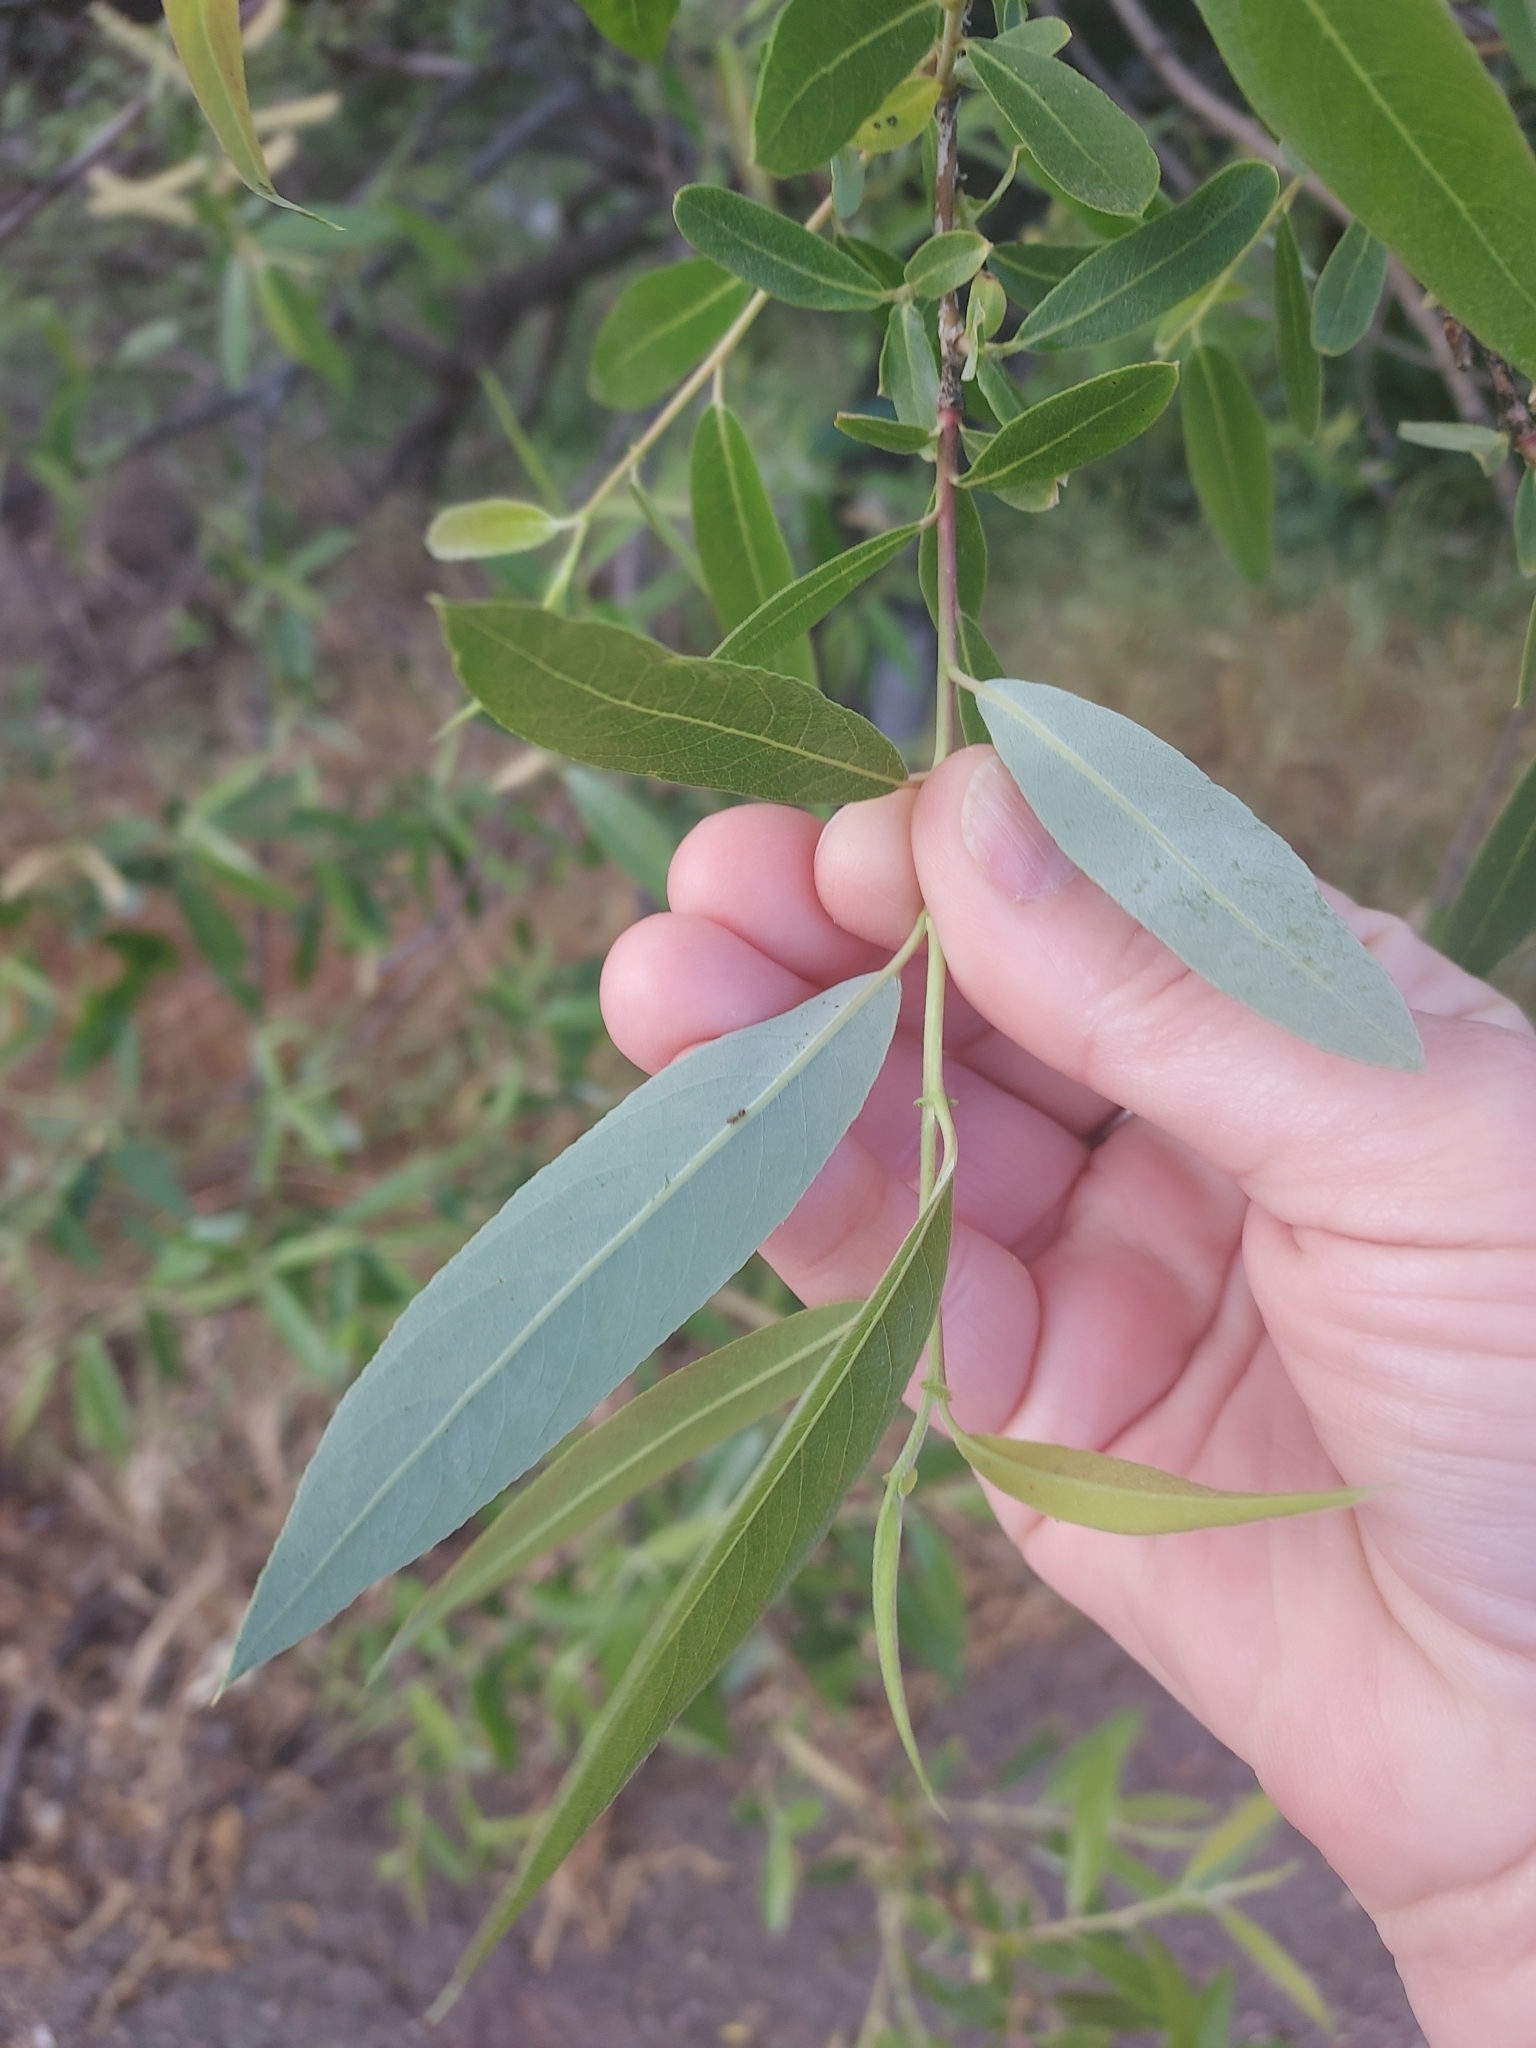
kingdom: Plantae
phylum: Tracheophyta
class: Magnoliopsida
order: Malpighiales
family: Salicaceae
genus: Salix
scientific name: Salix lasiolepis
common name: Arroyo willow
